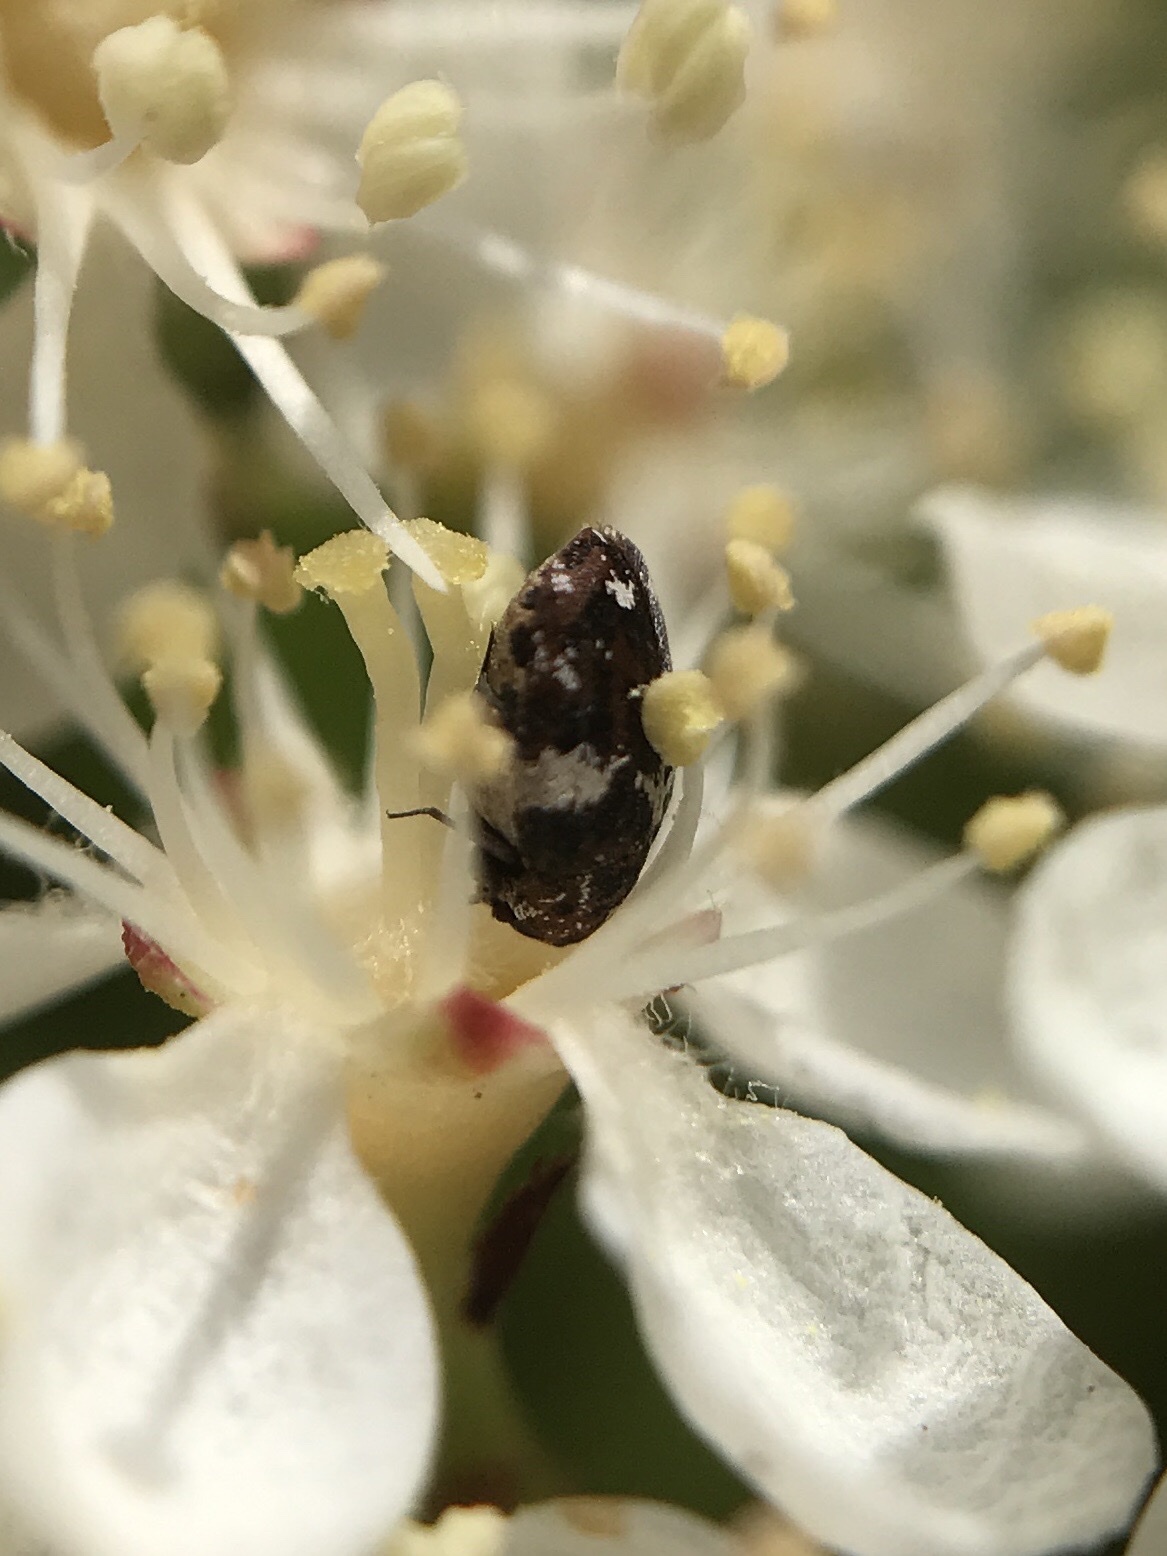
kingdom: Animalia
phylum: Arthropoda
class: Insecta
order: Coleoptera
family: Dermestidae
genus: Anthrenus
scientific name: Anthrenus angustefasciatus
